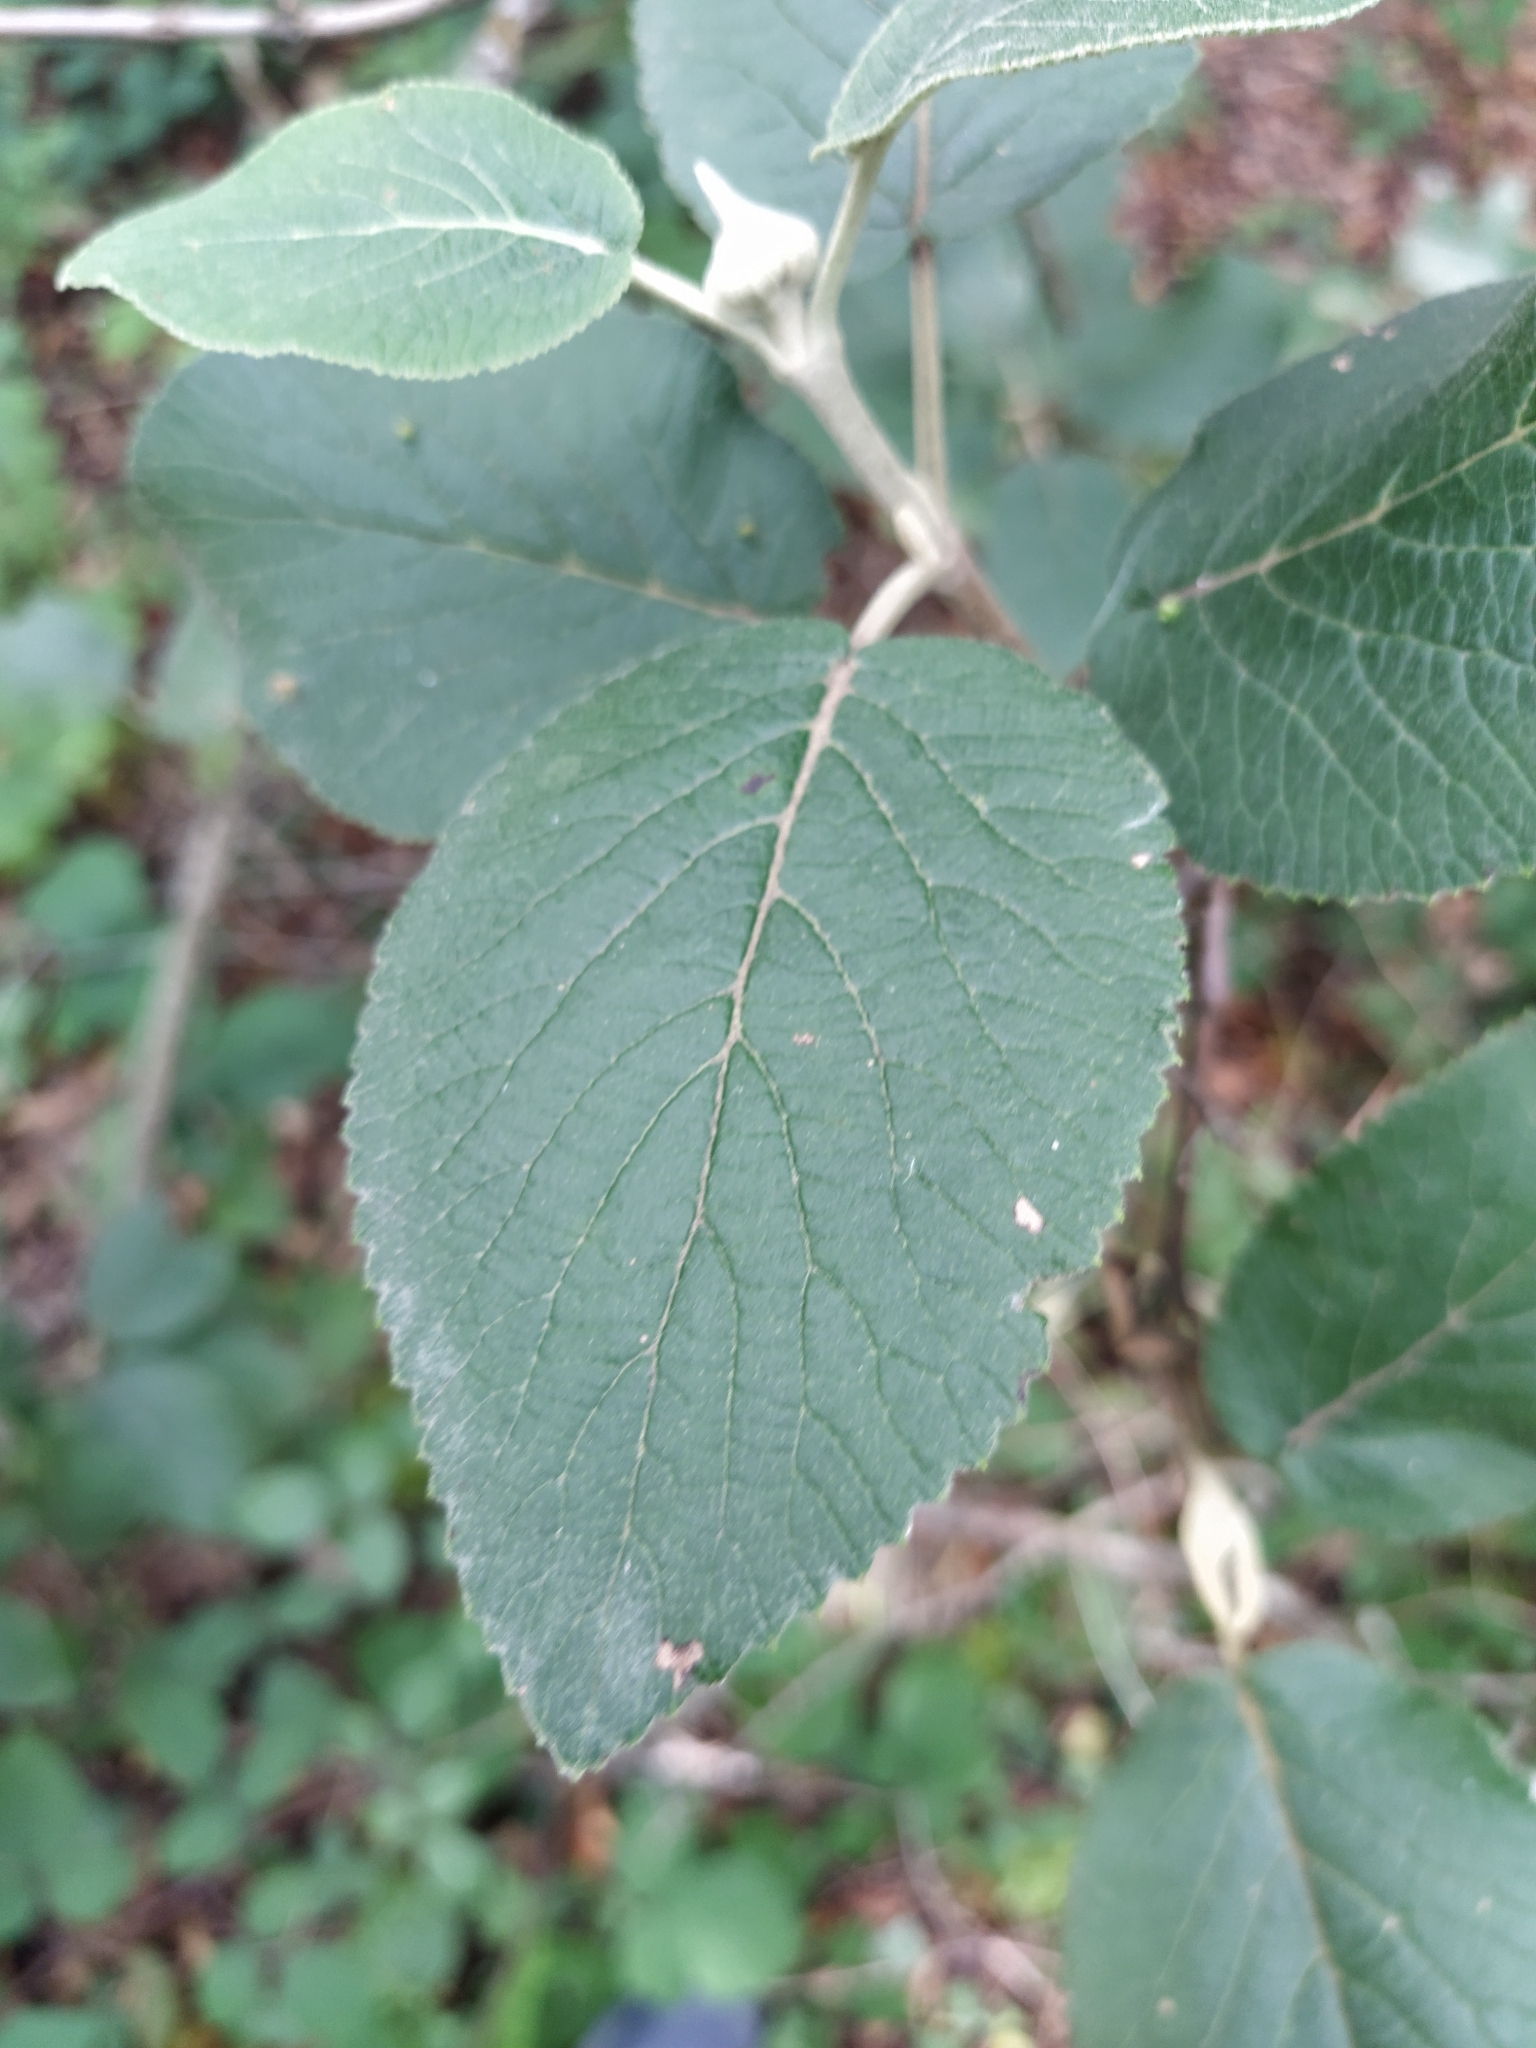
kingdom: Plantae
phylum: Tracheophyta
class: Magnoliopsida
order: Dipsacales
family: Viburnaceae
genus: Viburnum
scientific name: Viburnum lantana
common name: Wayfaring tree
